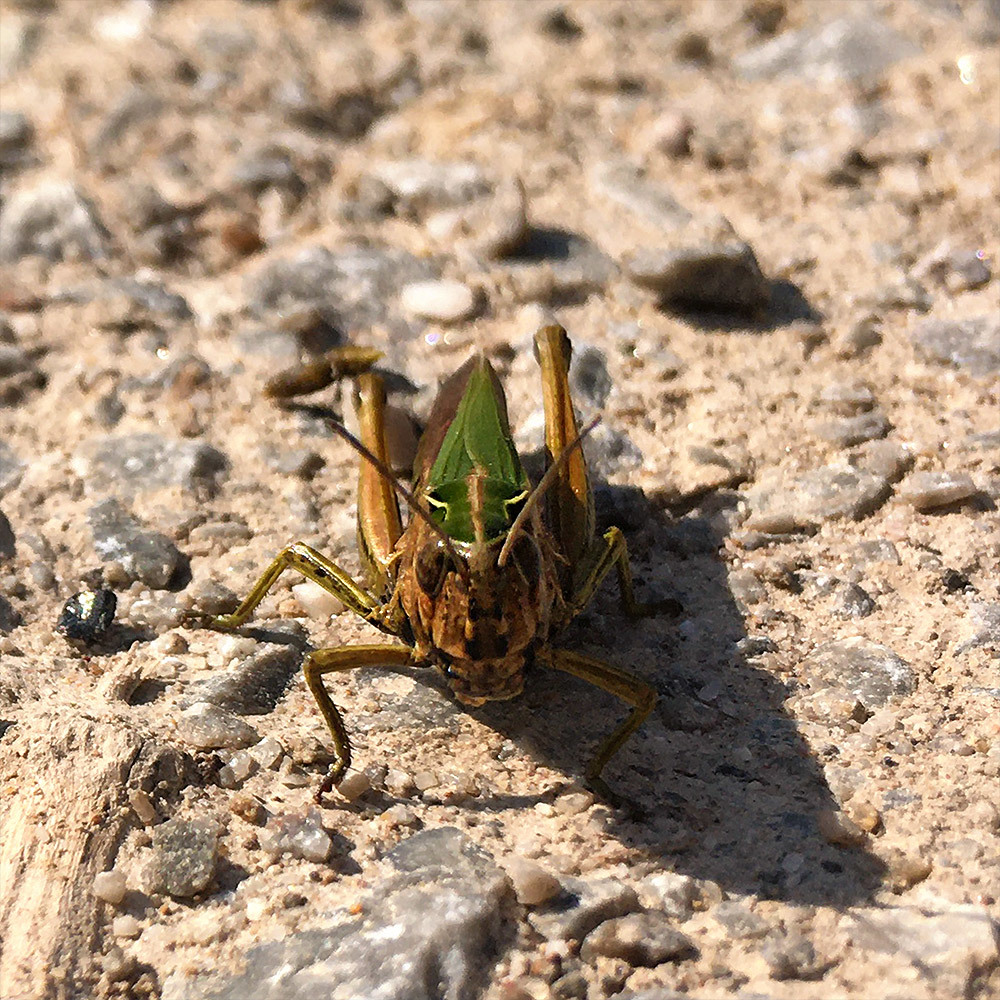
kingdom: Animalia
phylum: Arthropoda
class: Insecta
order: Orthoptera
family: Acrididae
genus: Omocestus
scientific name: Omocestus viridulus
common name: Common green grasshopper
